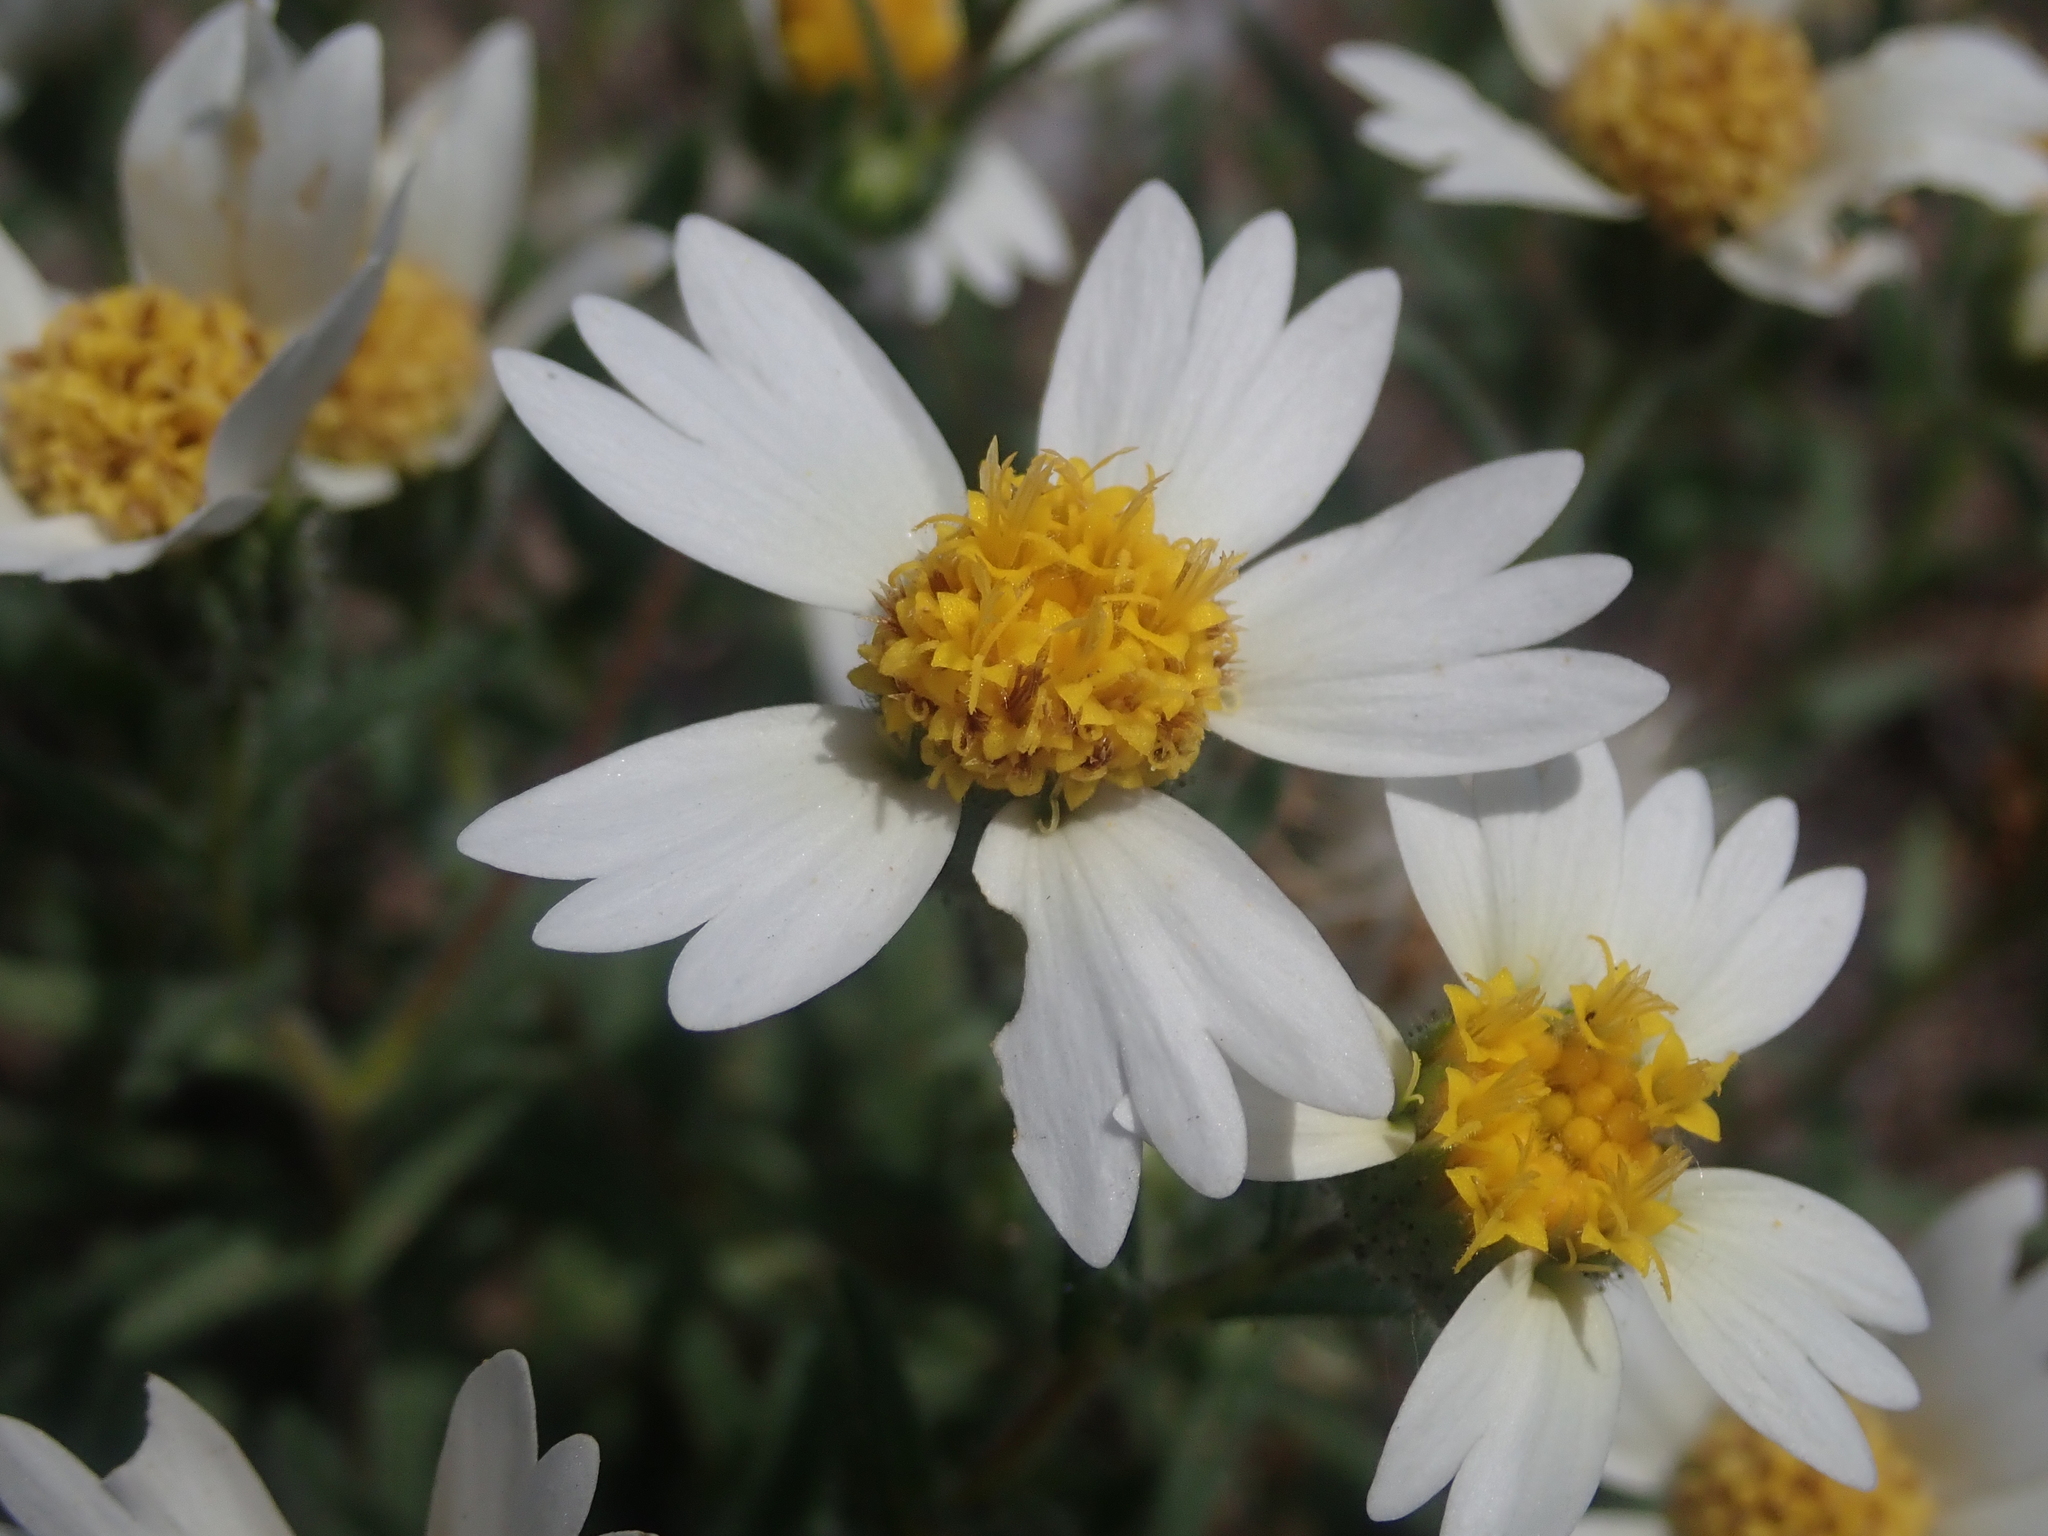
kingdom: Plantae
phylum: Tracheophyta
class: Magnoliopsida
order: Asterales
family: Asteraceae
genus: Layia
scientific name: Layia glandulosa
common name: White layia
